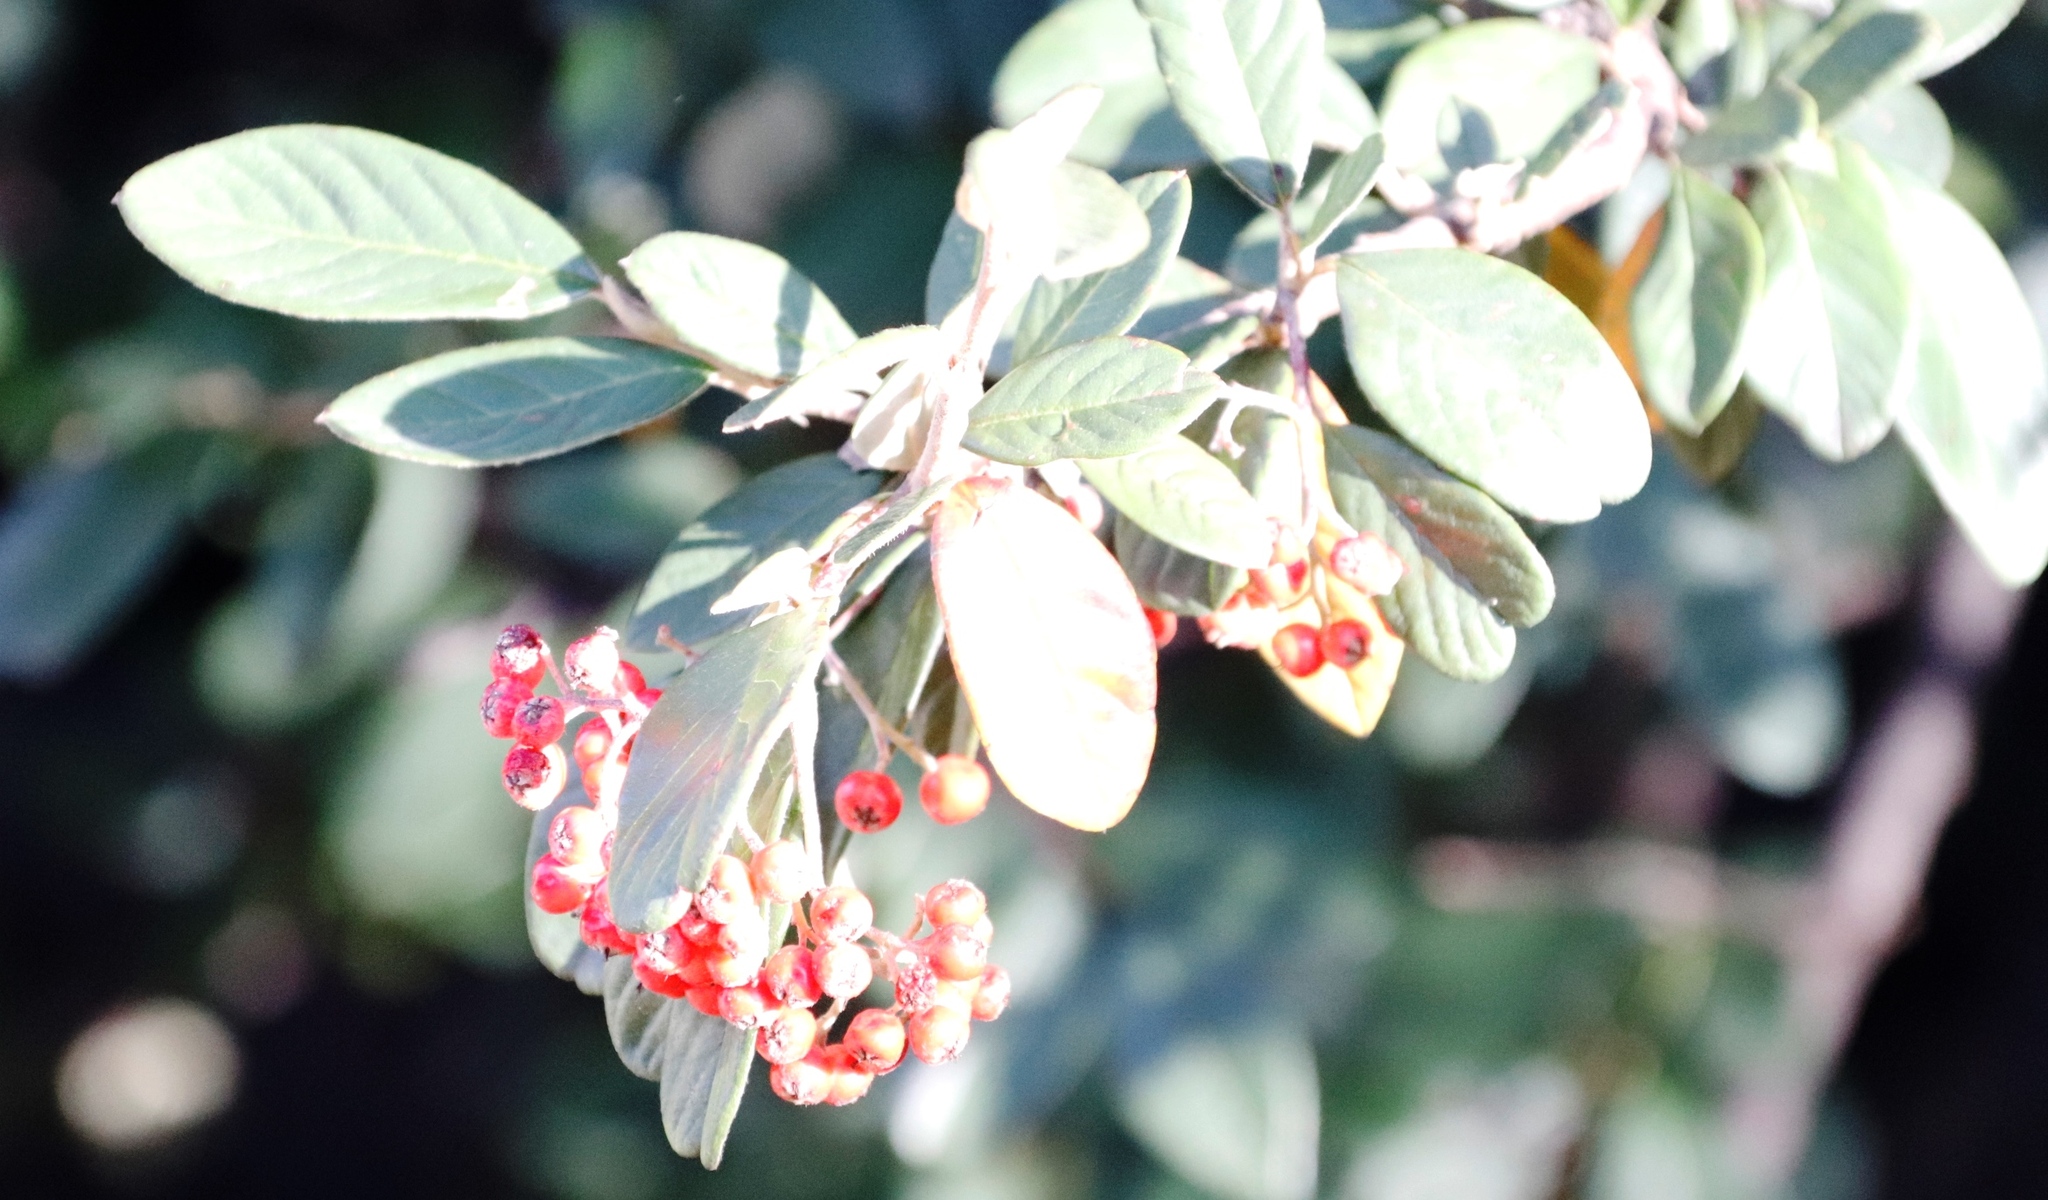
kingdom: Plantae
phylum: Tracheophyta
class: Magnoliopsida
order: Rosales
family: Rosaceae
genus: Cotoneaster
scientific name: Cotoneaster coriaceus
